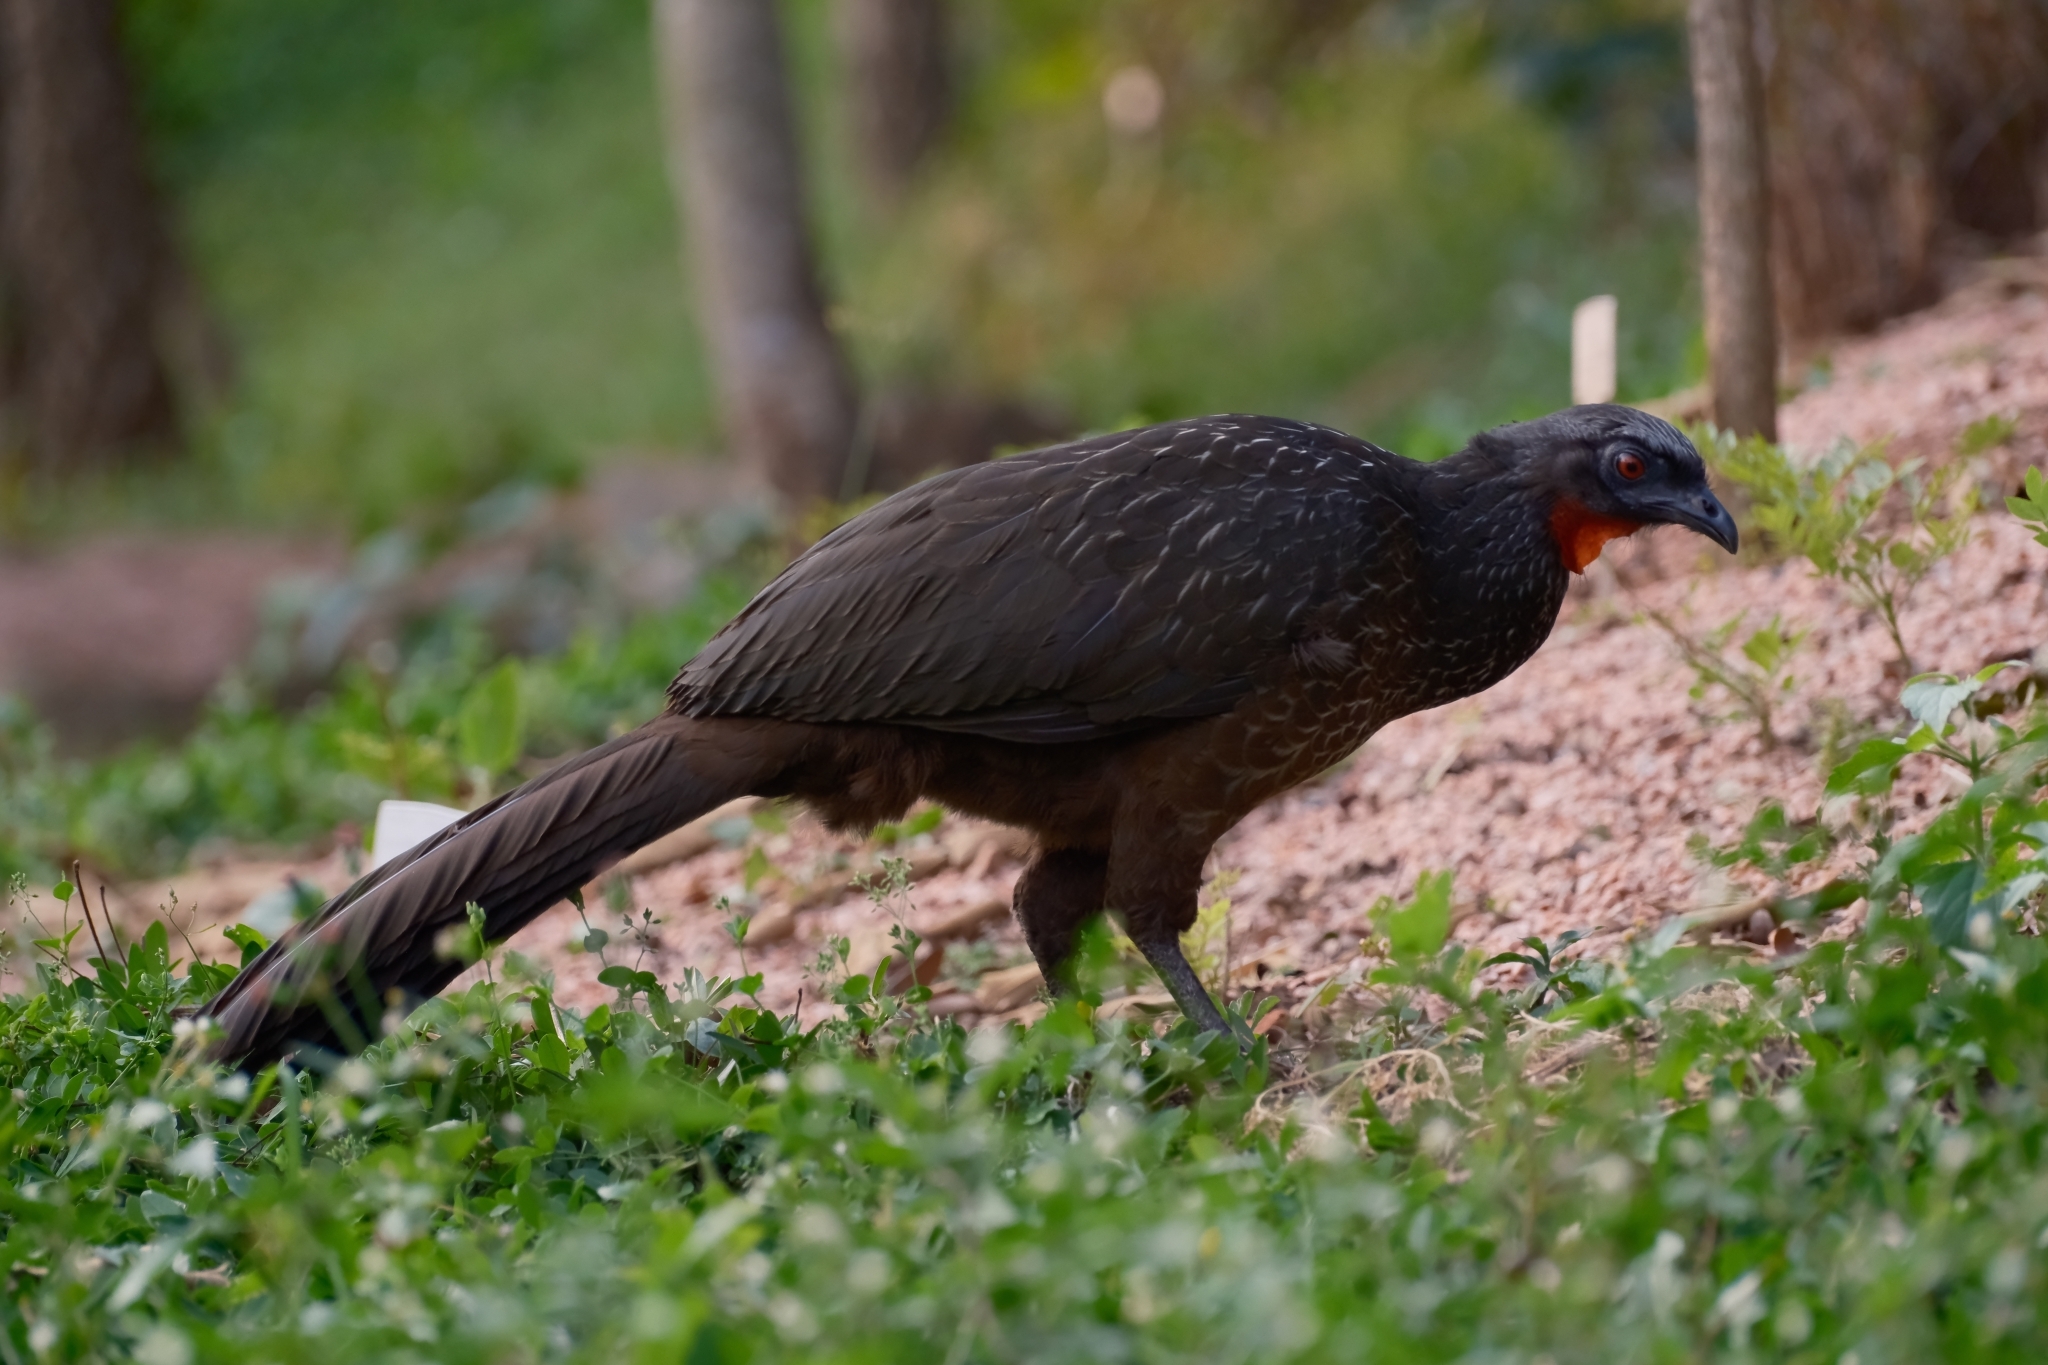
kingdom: Animalia
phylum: Chordata
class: Aves
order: Galliformes
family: Cracidae
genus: Penelope
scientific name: Penelope obscura
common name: Dusky-legged guan
